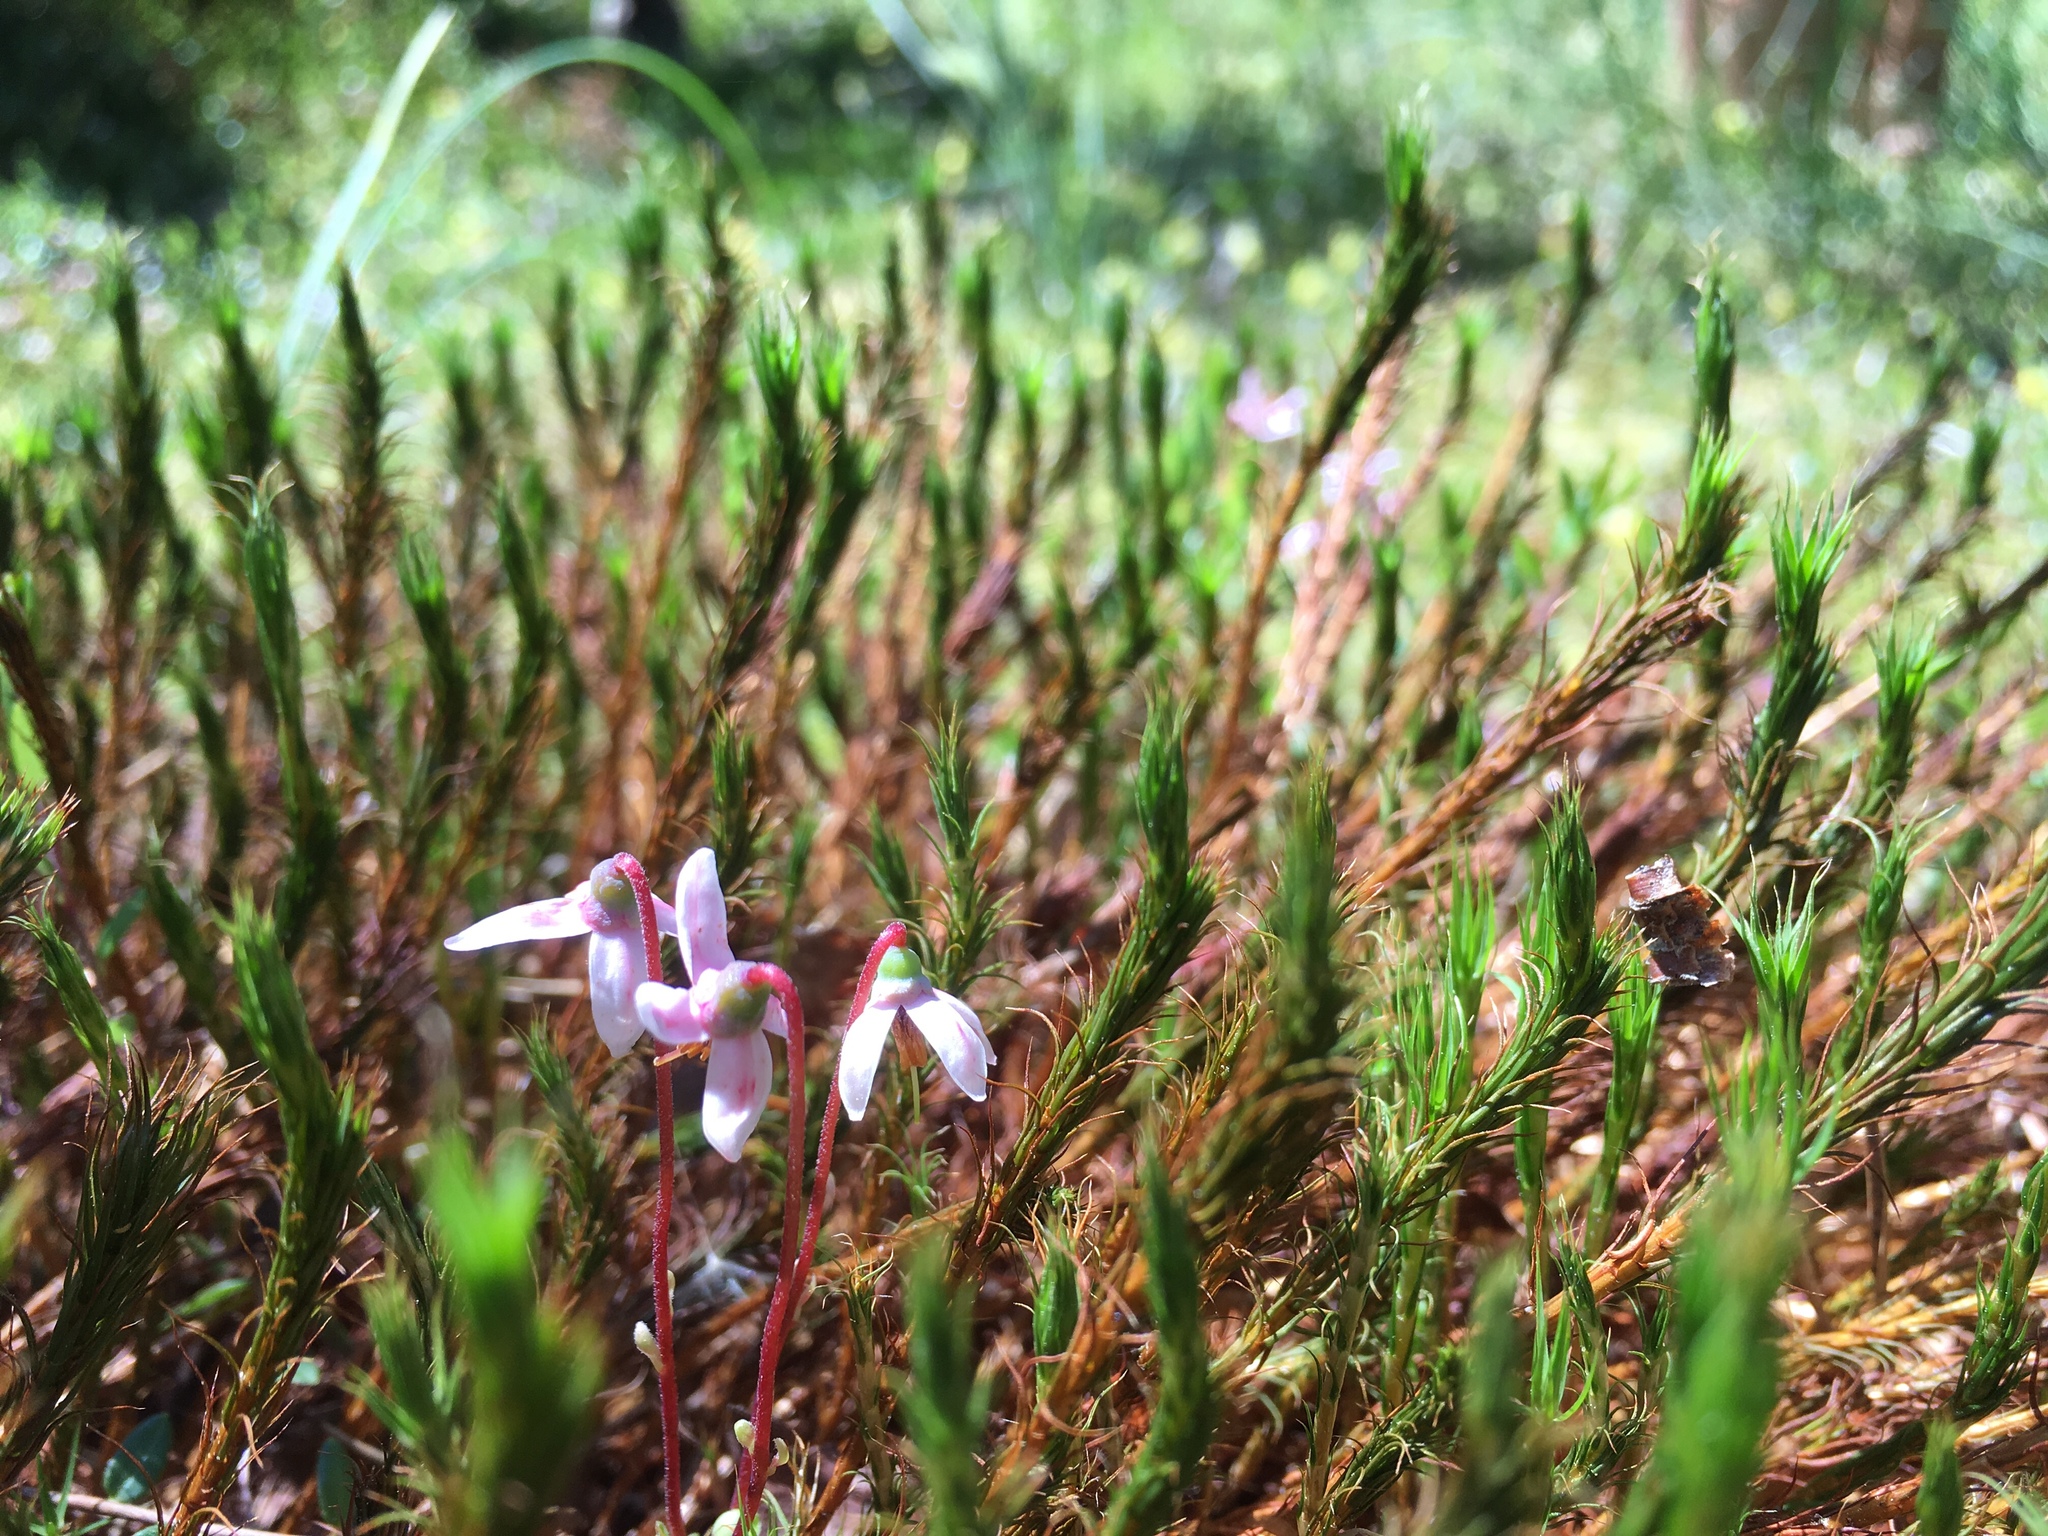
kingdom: Plantae
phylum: Tracheophyta
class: Magnoliopsida
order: Ericales
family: Ericaceae
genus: Vaccinium
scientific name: Vaccinium oxycoccos
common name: Cranberry
